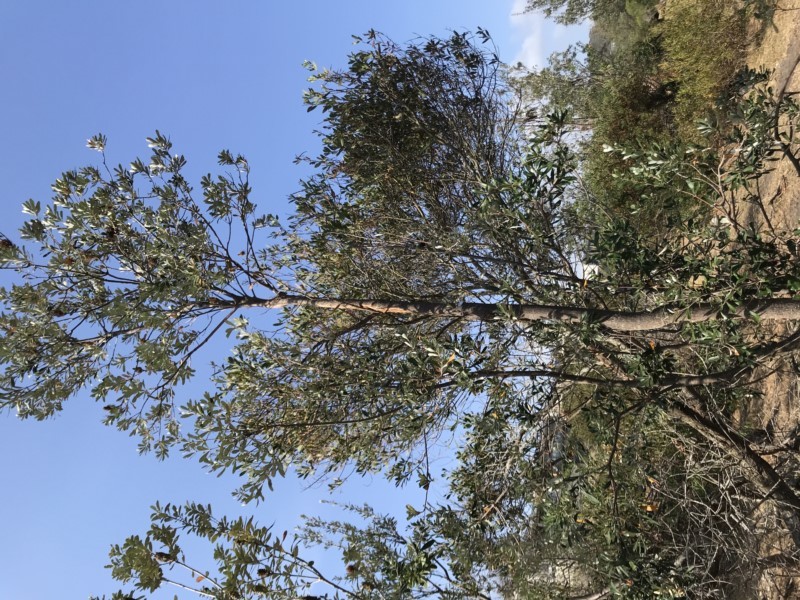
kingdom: Plantae
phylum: Tracheophyta
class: Magnoliopsida
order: Proteales
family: Proteaceae
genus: Banksia
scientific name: Banksia integrifolia
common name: White-honeysuckle
